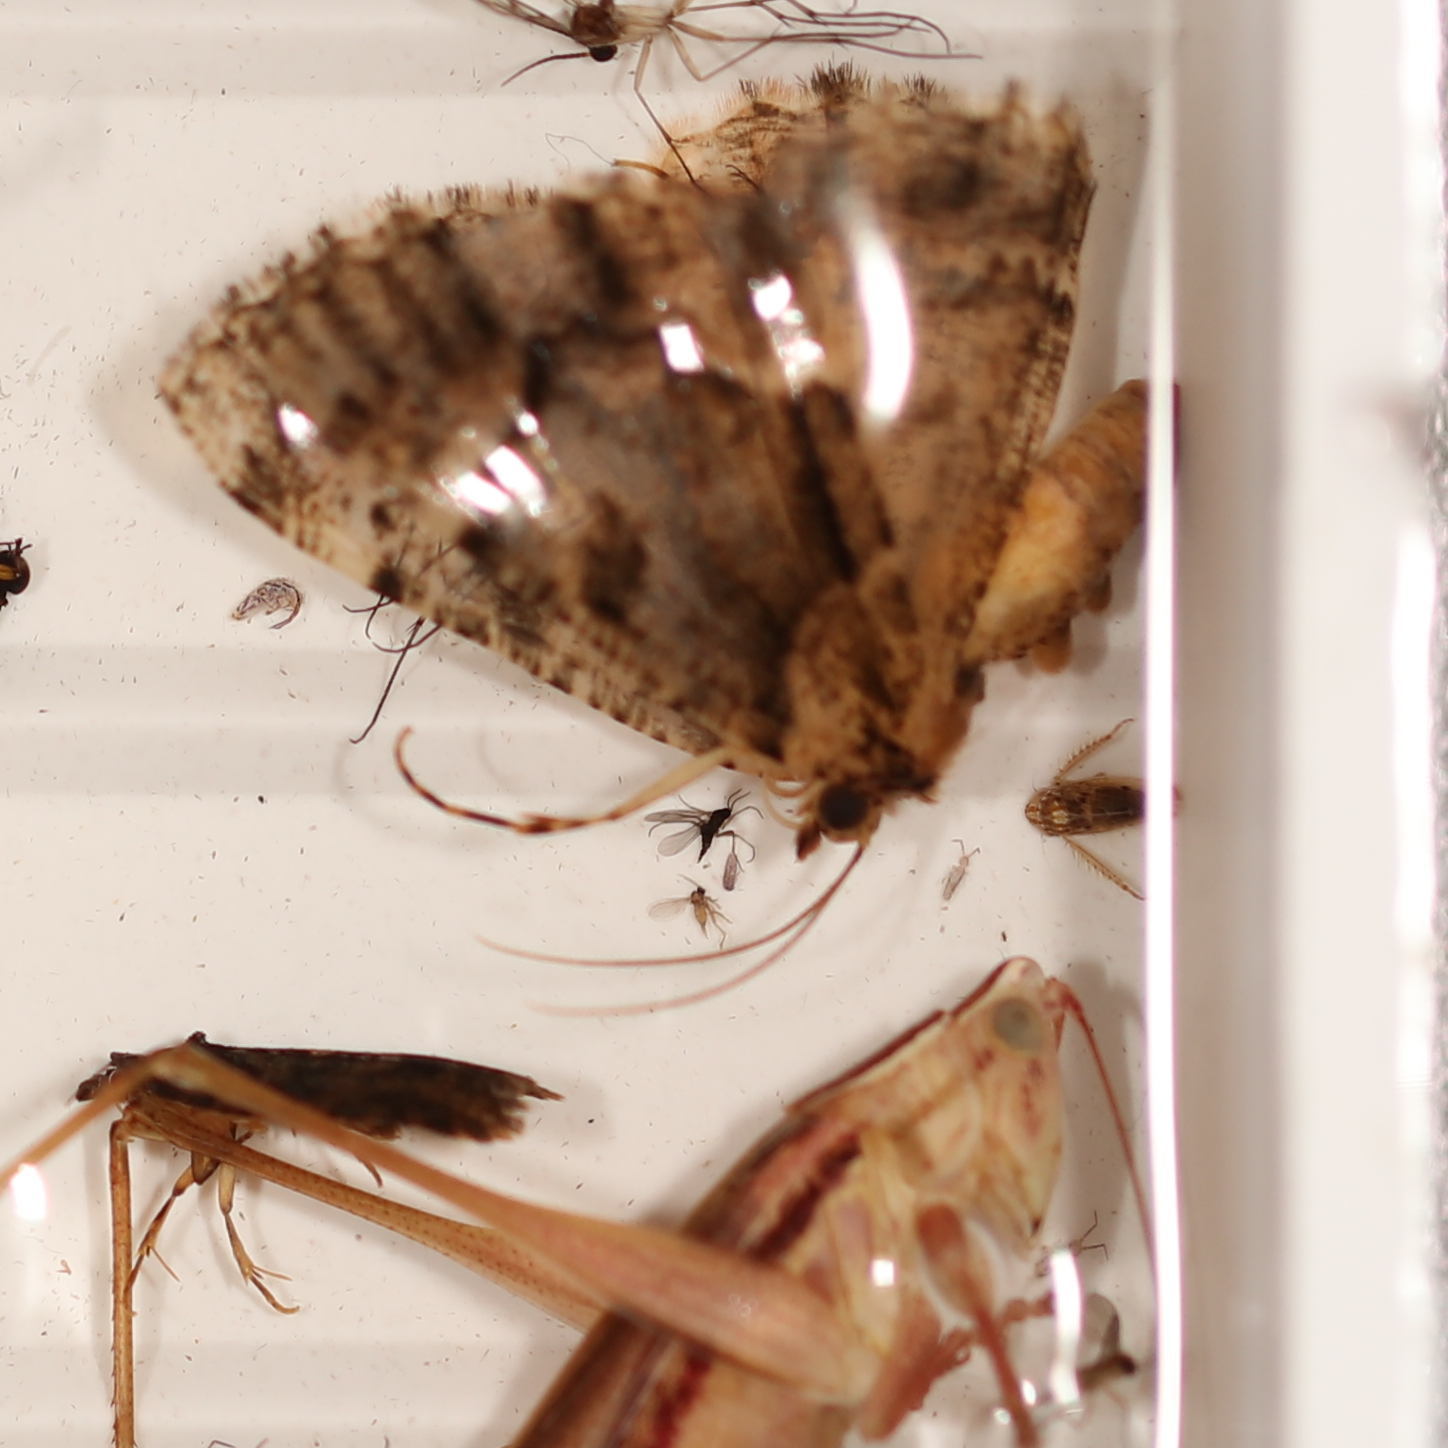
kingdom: Animalia
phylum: Arthropoda
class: Insecta
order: Lepidoptera
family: Geometridae
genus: Aeolochroma
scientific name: Aeolochroma metarhodata
